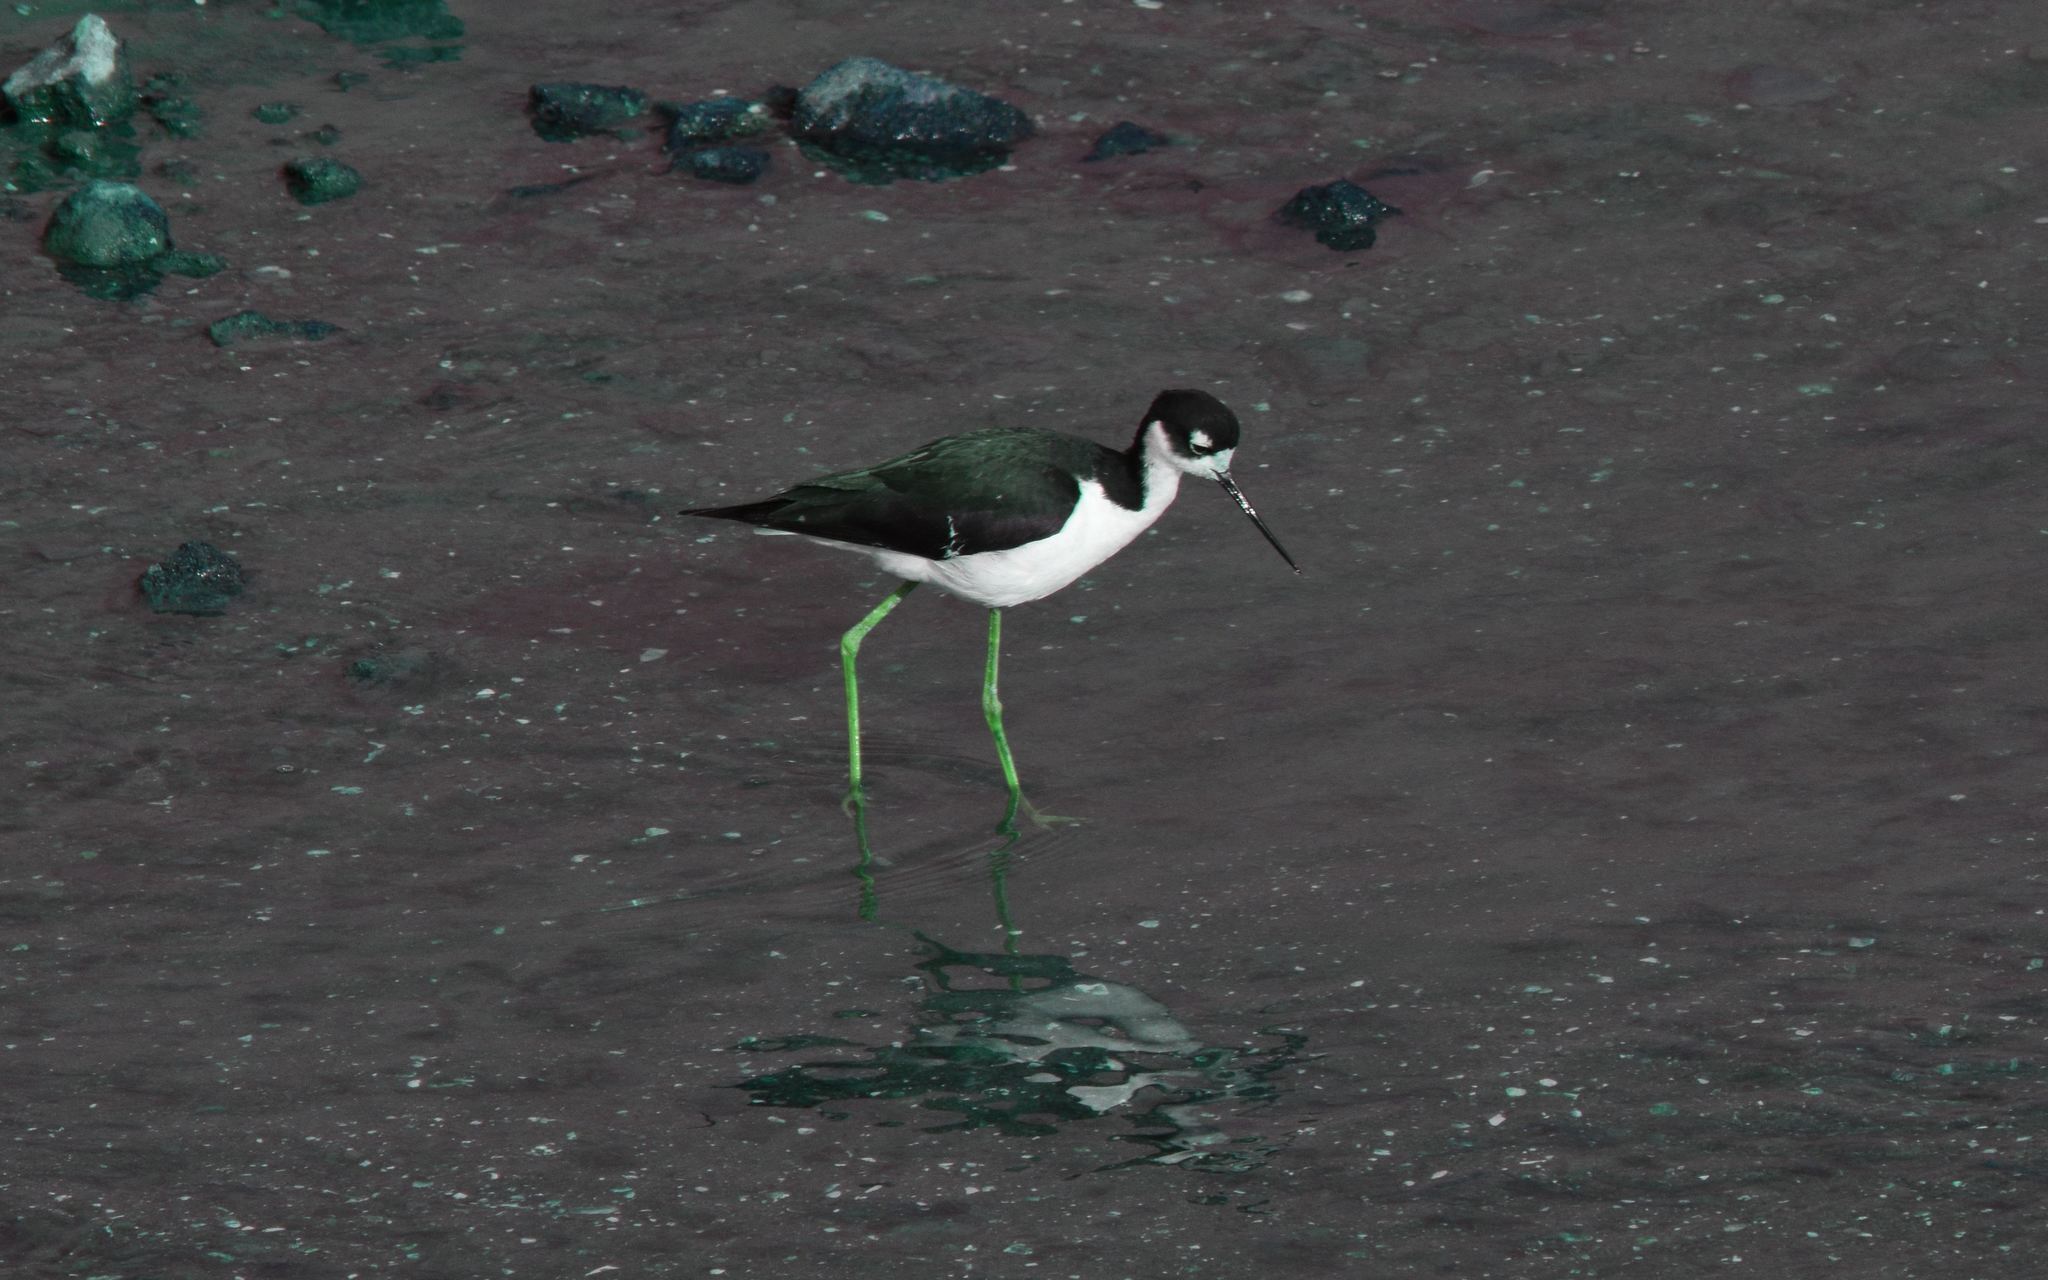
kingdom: Animalia
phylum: Chordata
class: Aves
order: Charadriiformes
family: Recurvirostridae
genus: Himantopus
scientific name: Himantopus mexicanus
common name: Black-necked stilt
